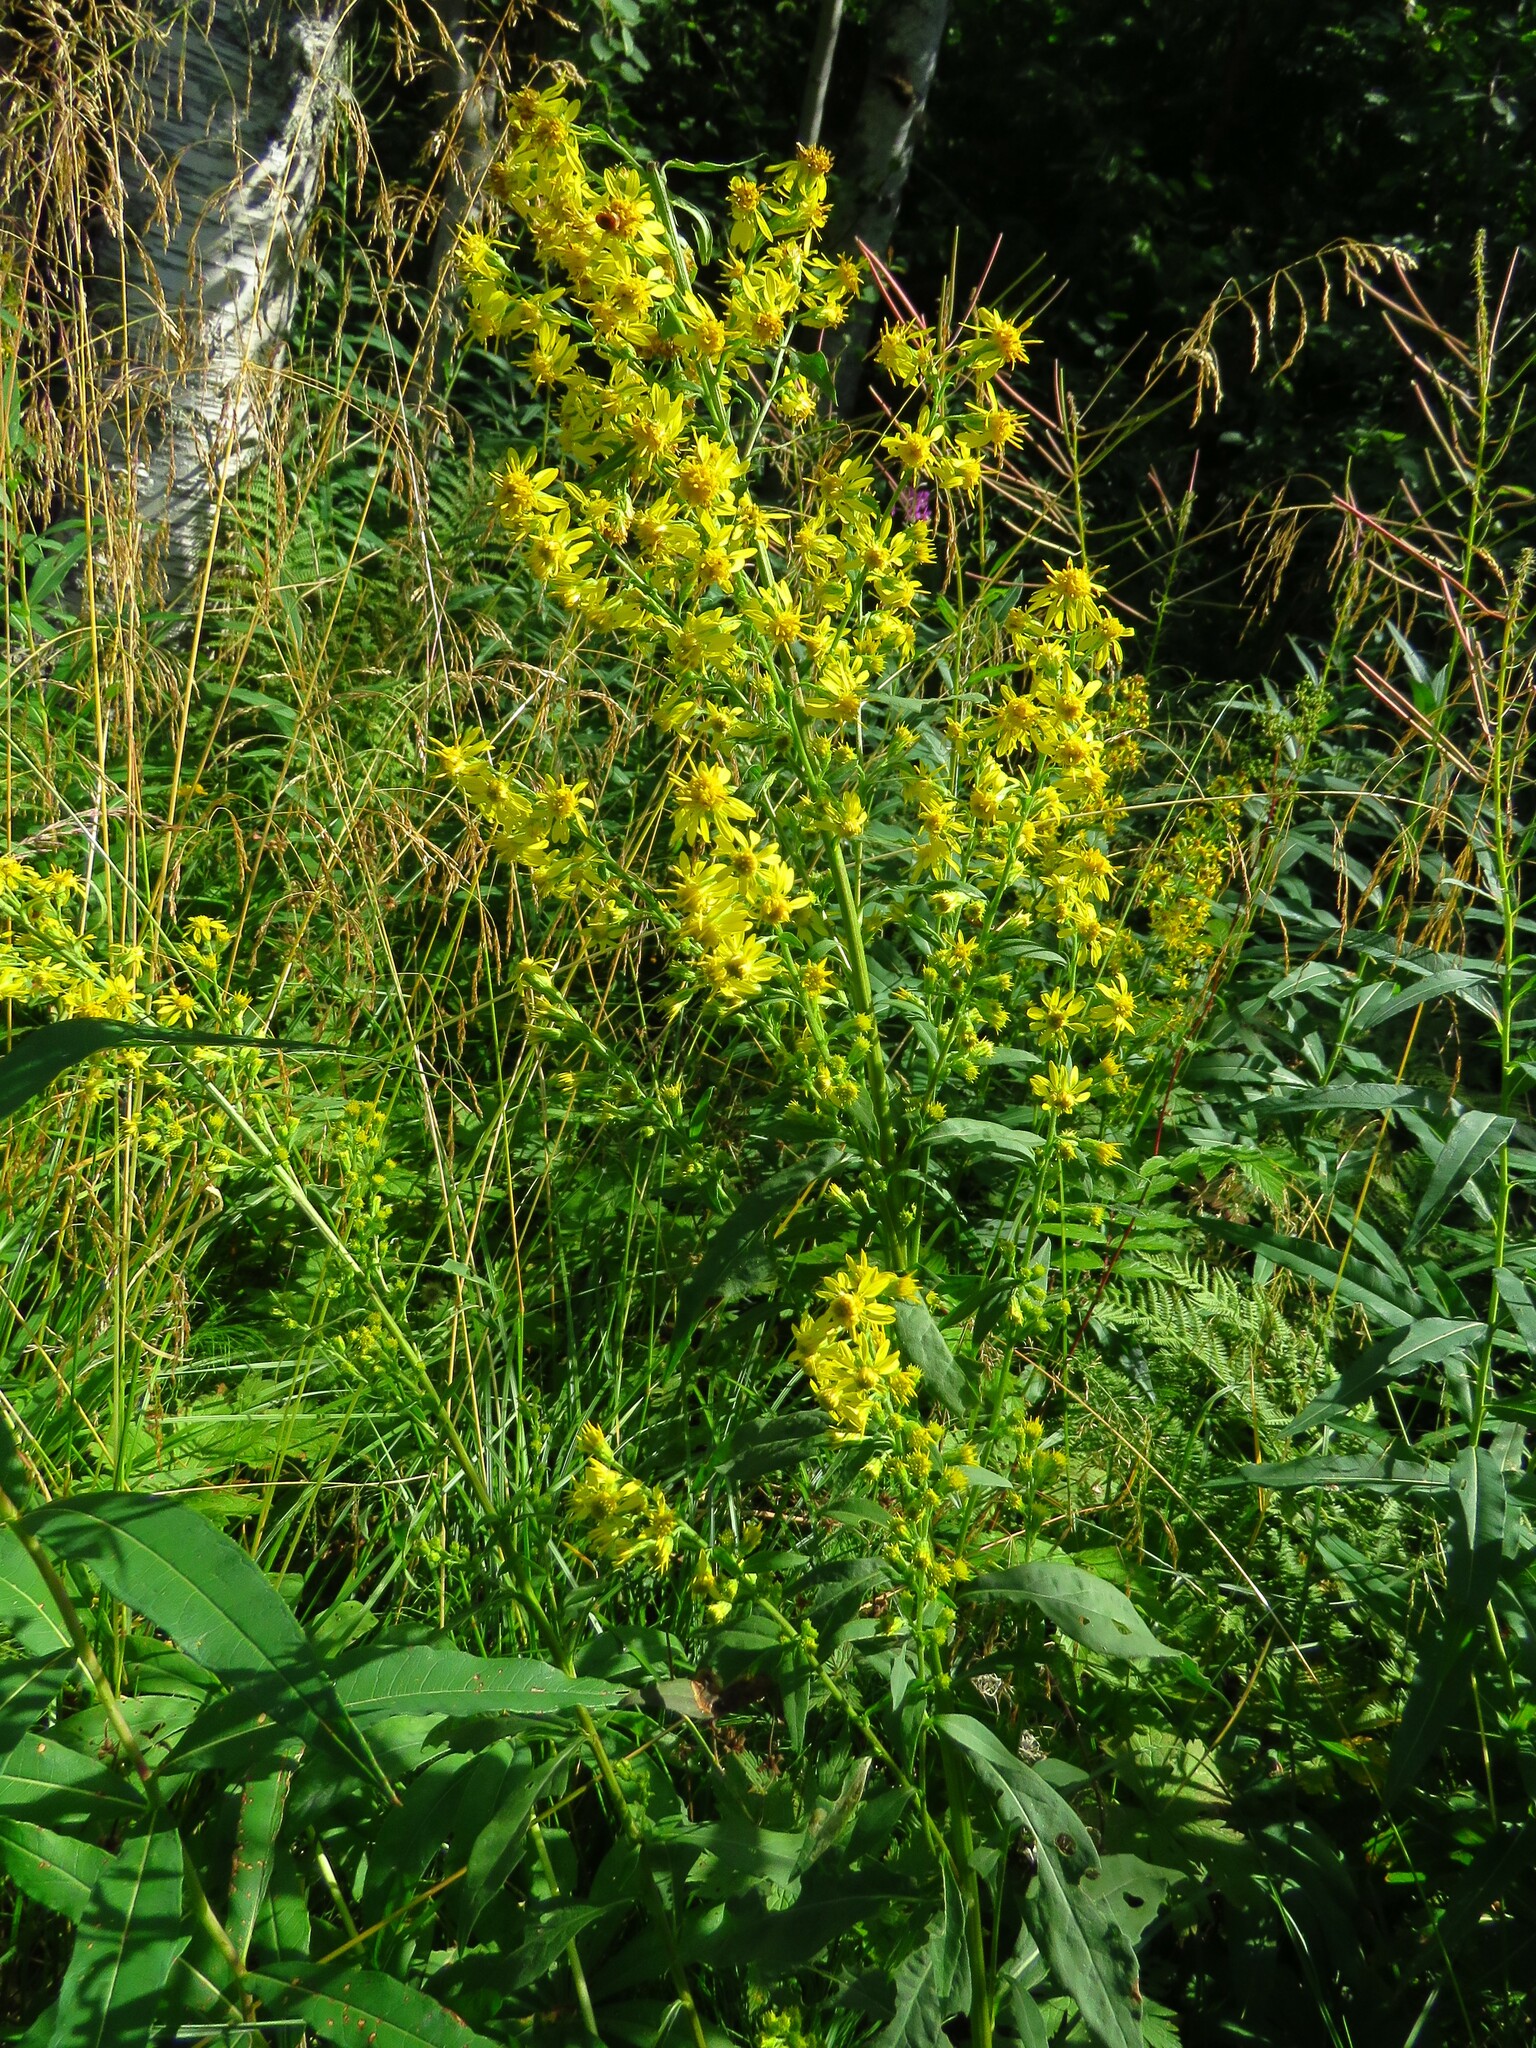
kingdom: Plantae
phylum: Tracheophyta
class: Magnoliopsida
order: Asterales
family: Asteraceae
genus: Solidago
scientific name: Solidago virgaurea
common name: Goldenrod
